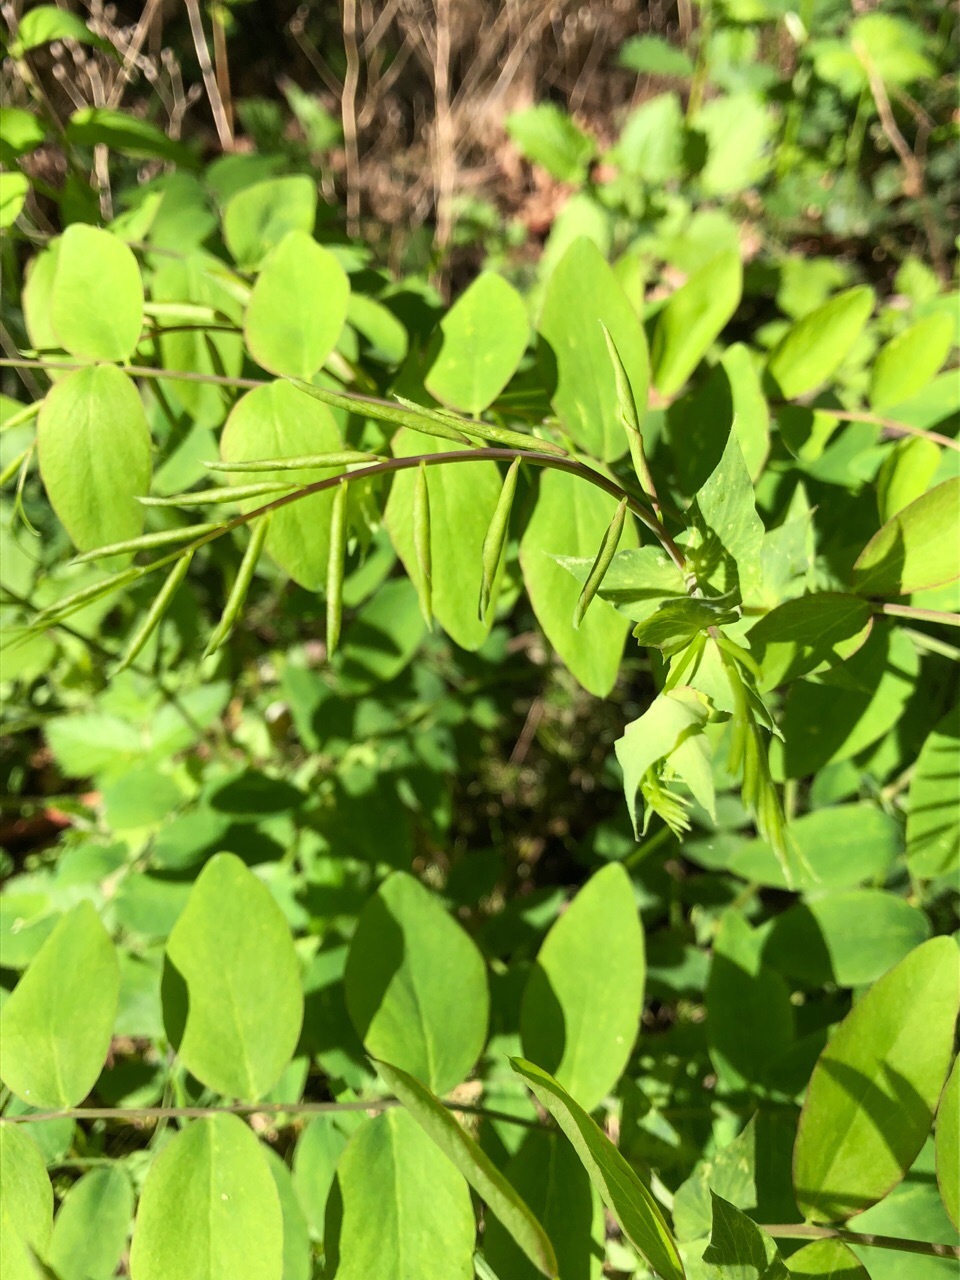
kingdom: Plantae
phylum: Tracheophyta
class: Magnoliopsida
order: Fabales
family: Fabaceae
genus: Lathyrus
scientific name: Lathyrus polyphyllus
